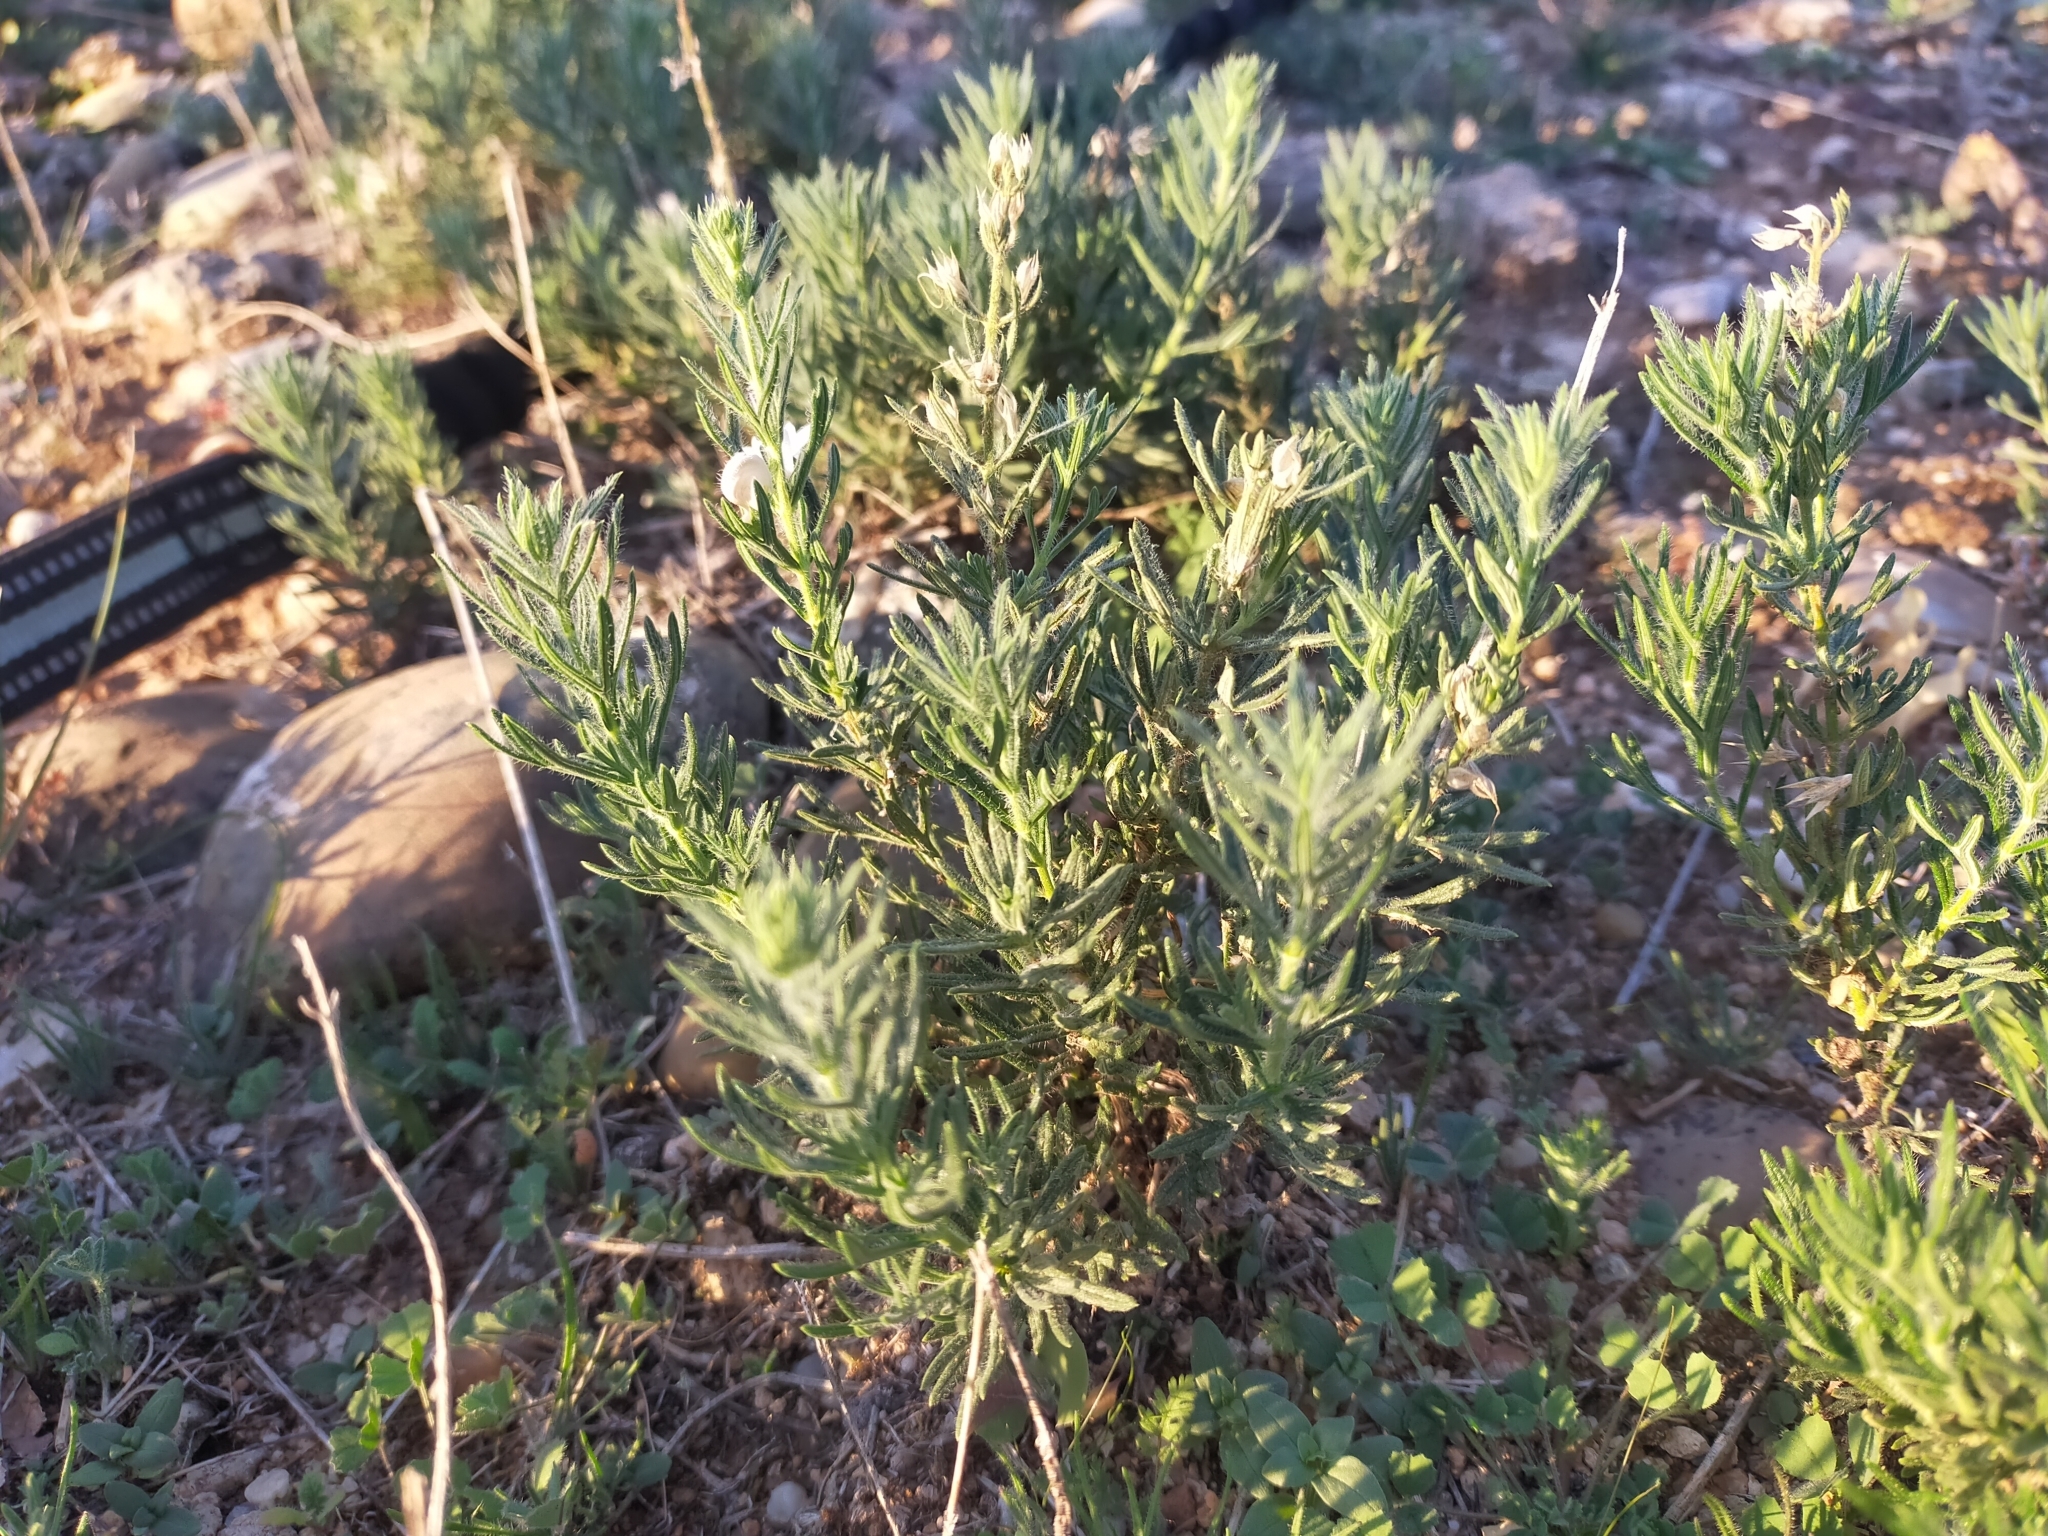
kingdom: Plantae
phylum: Tracheophyta
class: Magnoliopsida
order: Lamiales
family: Lamiaceae
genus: Teucrium
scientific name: Teucrium pseudochamaepitys
